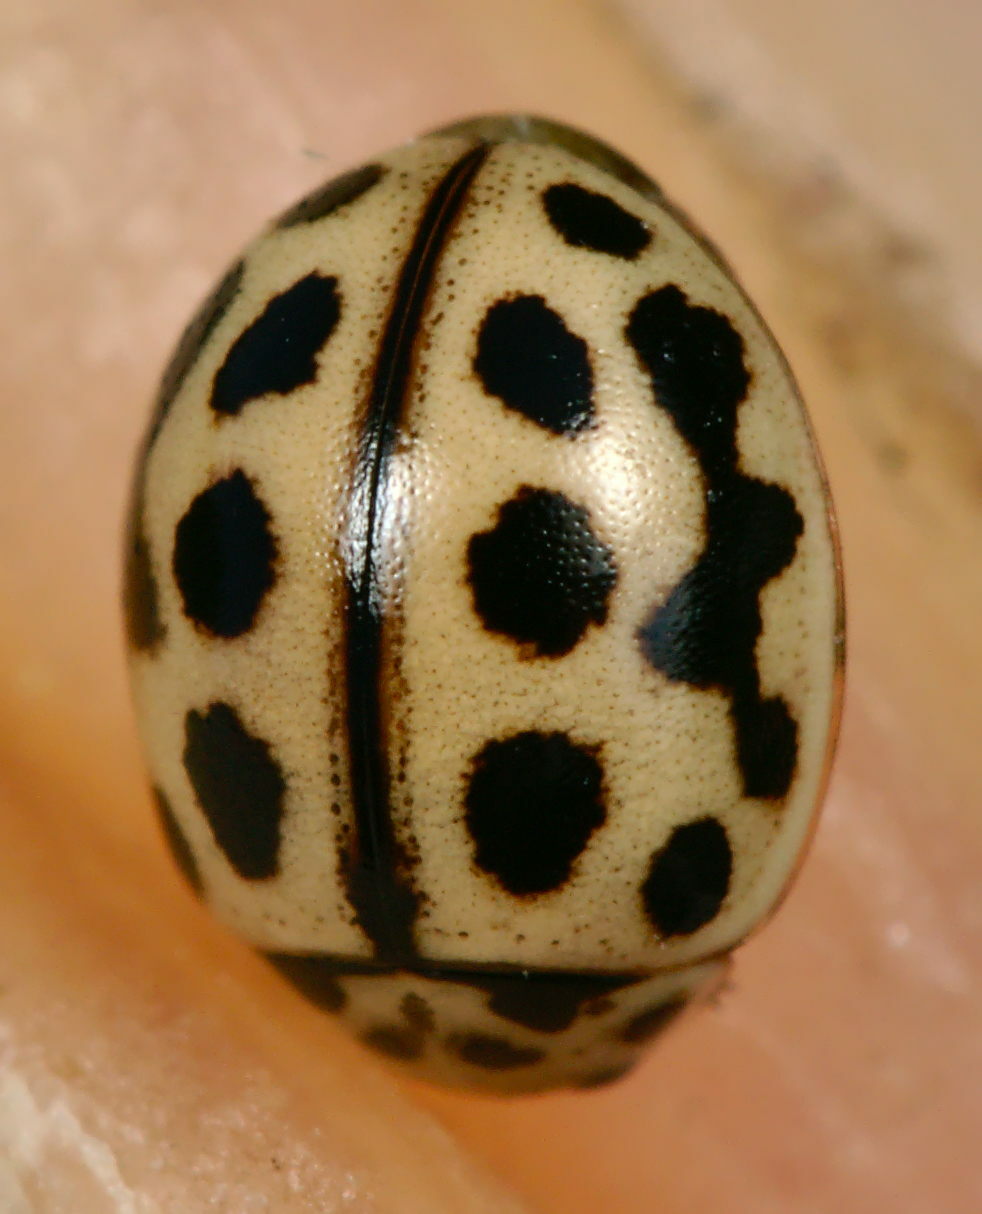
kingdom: Animalia
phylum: Arthropoda
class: Insecta
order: Coleoptera
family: Coccinellidae
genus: Tytthaspis
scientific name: Tytthaspis sedecimpunctata
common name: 16-spot ladybird
